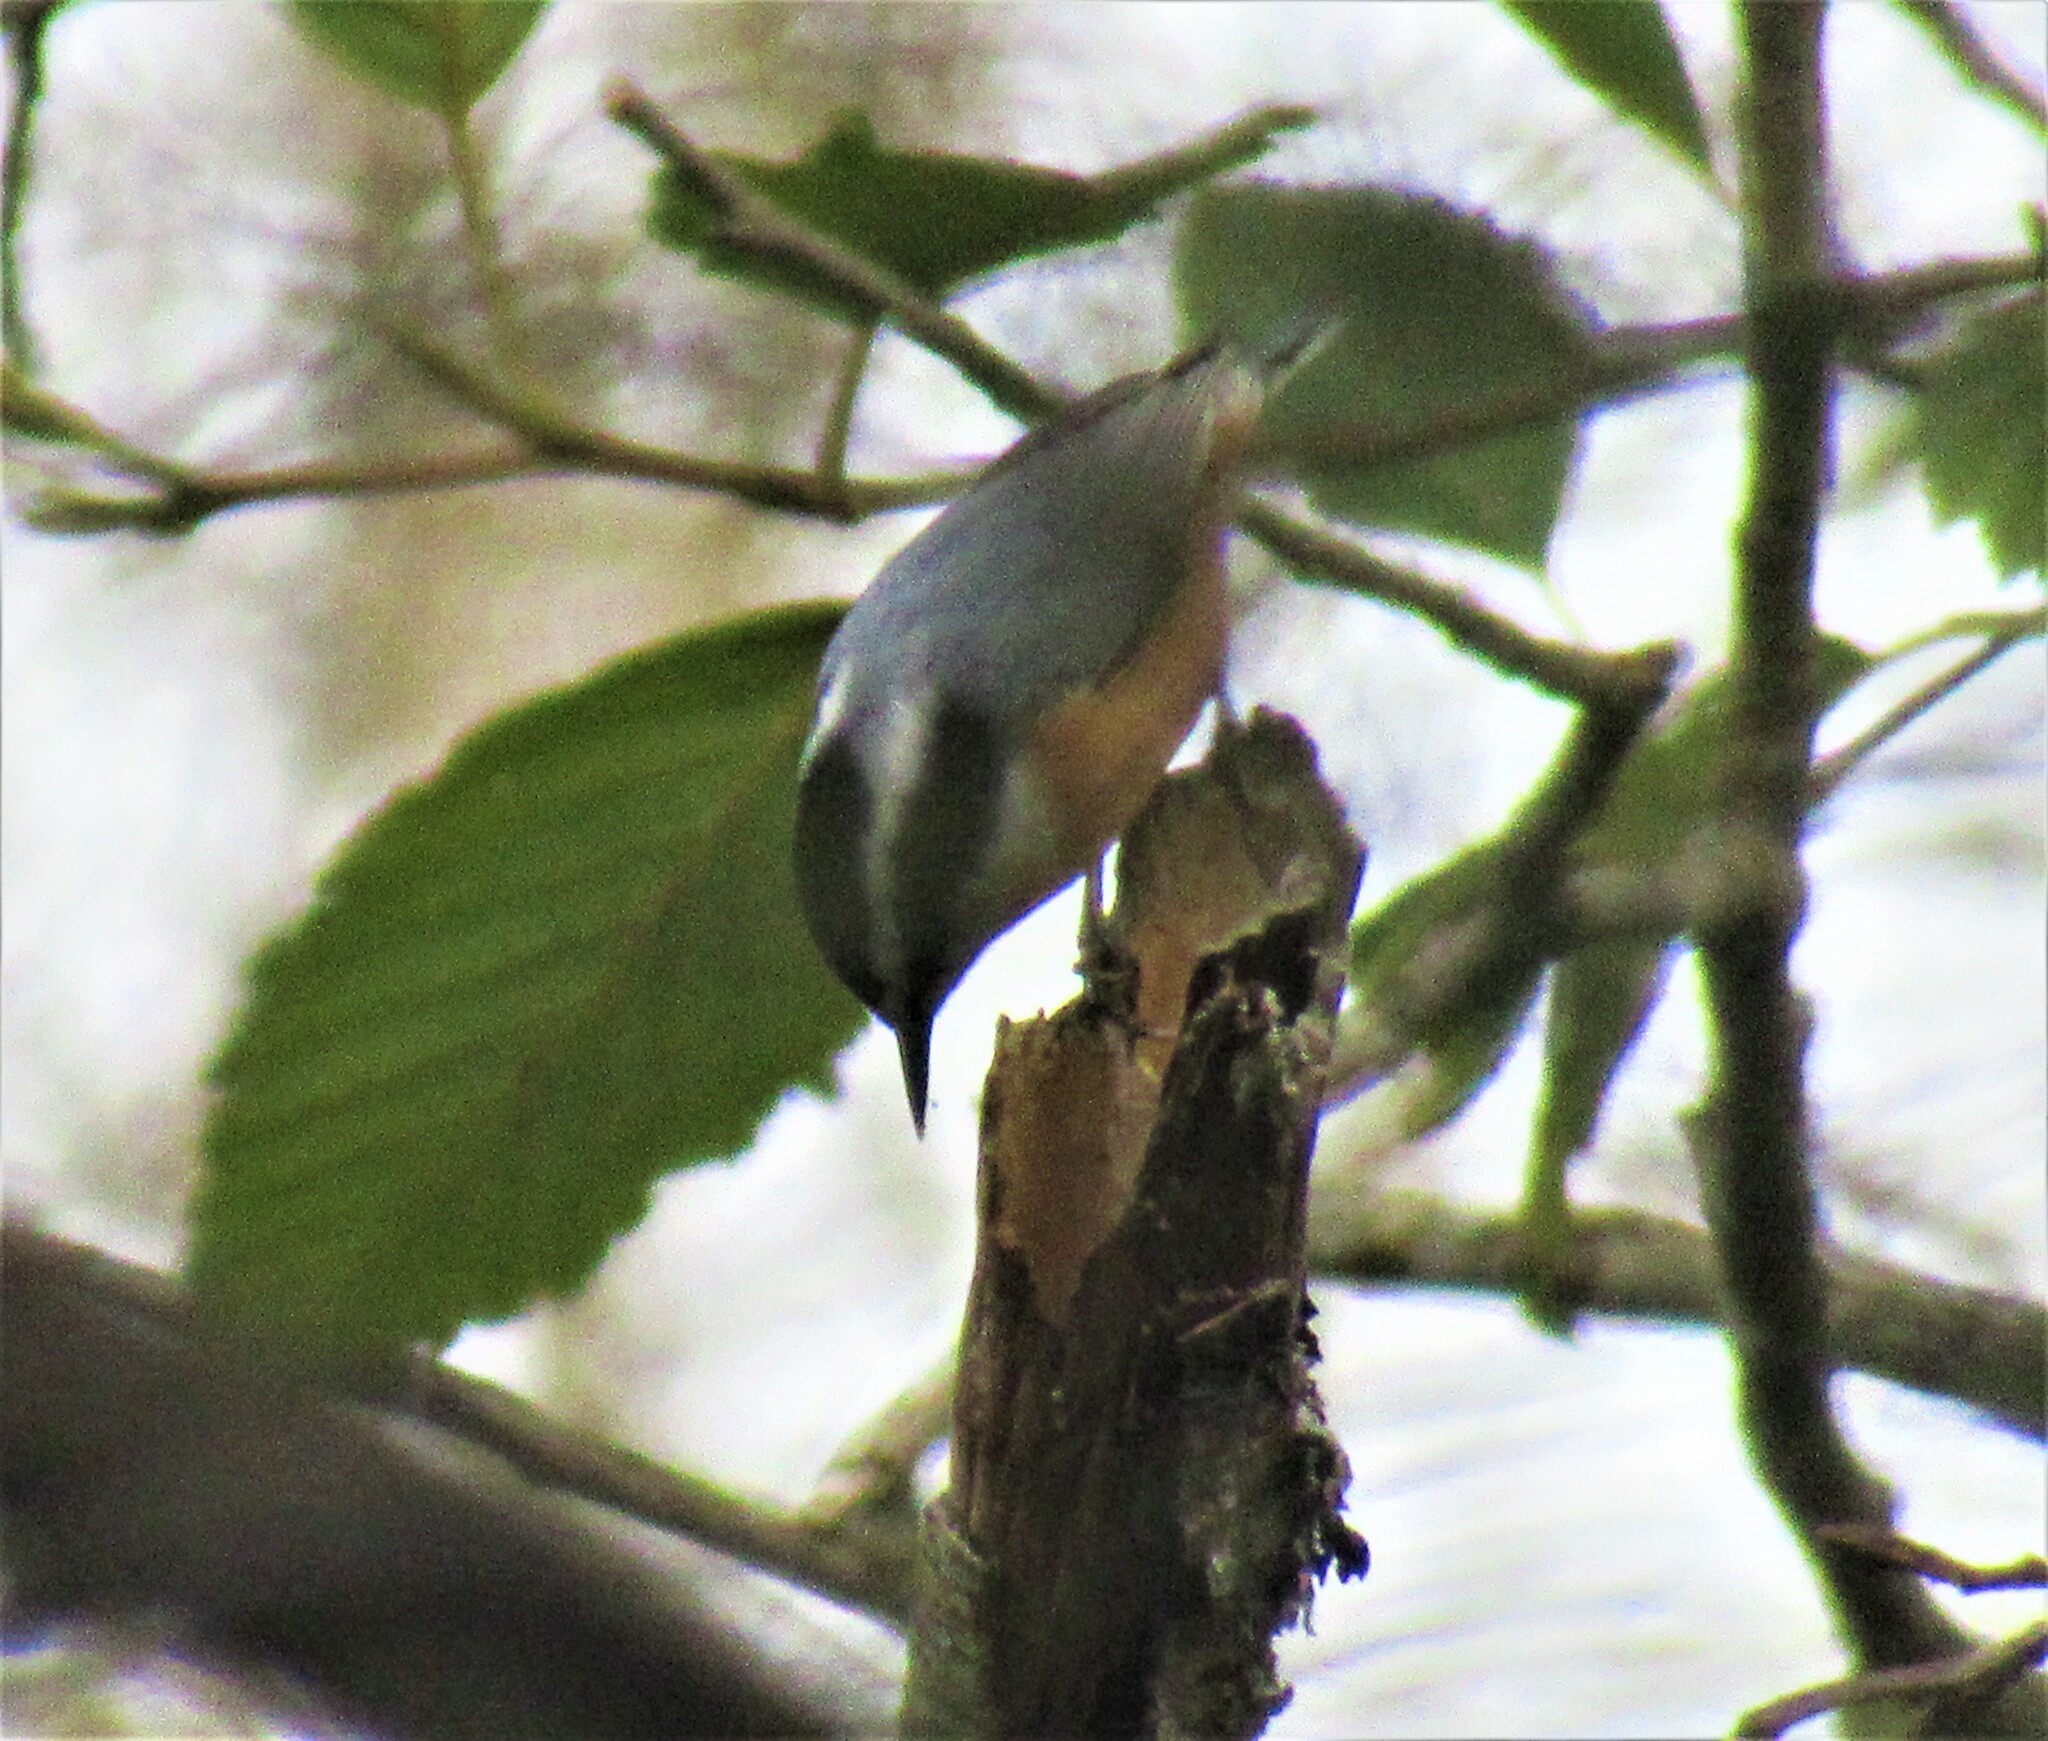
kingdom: Animalia
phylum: Chordata
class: Aves
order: Passeriformes
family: Sittidae
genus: Sitta
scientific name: Sitta canadensis
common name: Red-breasted nuthatch
